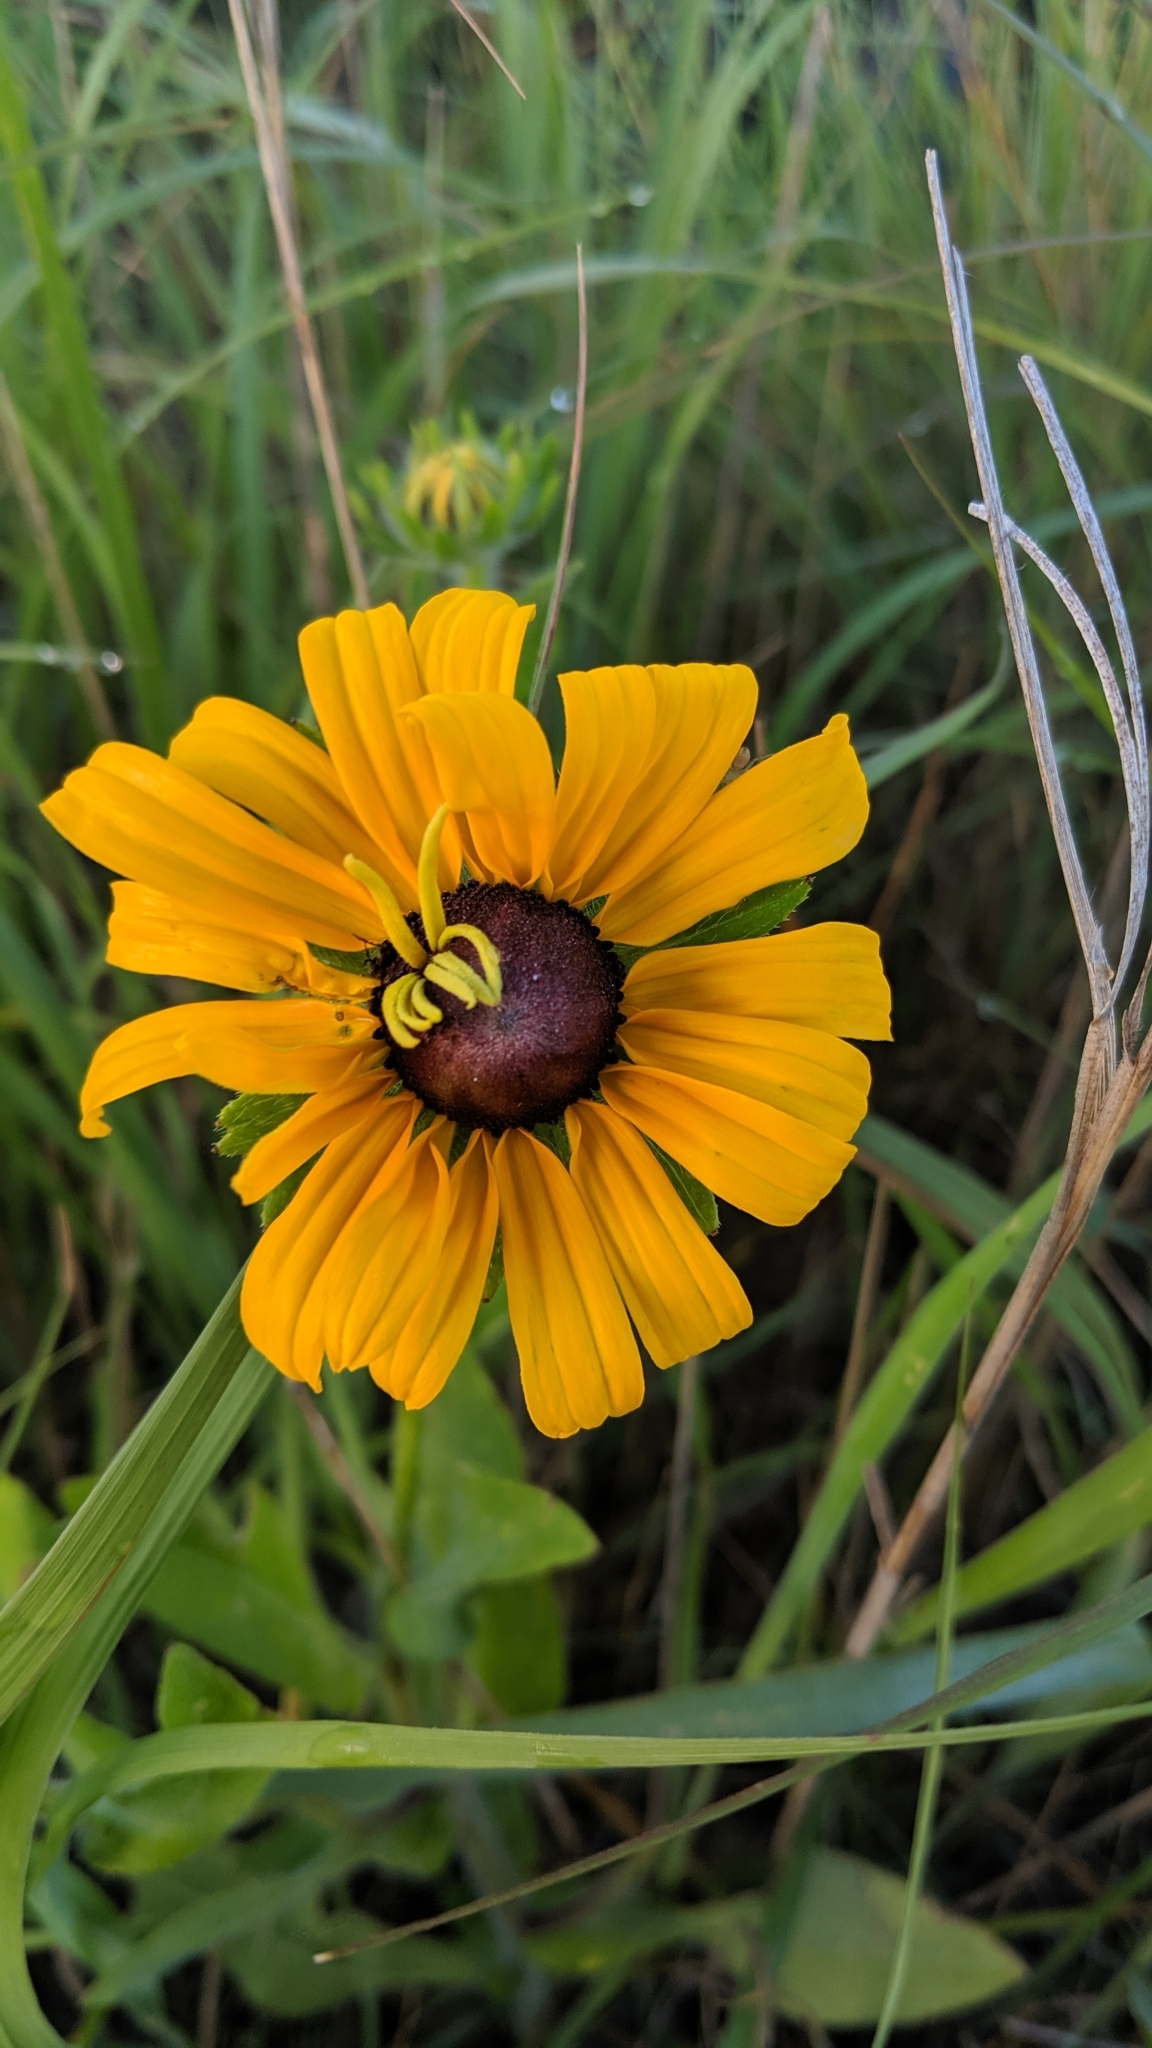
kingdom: Plantae
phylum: Tracheophyta
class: Magnoliopsida
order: Asterales
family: Asteraceae
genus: Rudbeckia
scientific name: Rudbeckia hirta
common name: Black-eyed-susan
